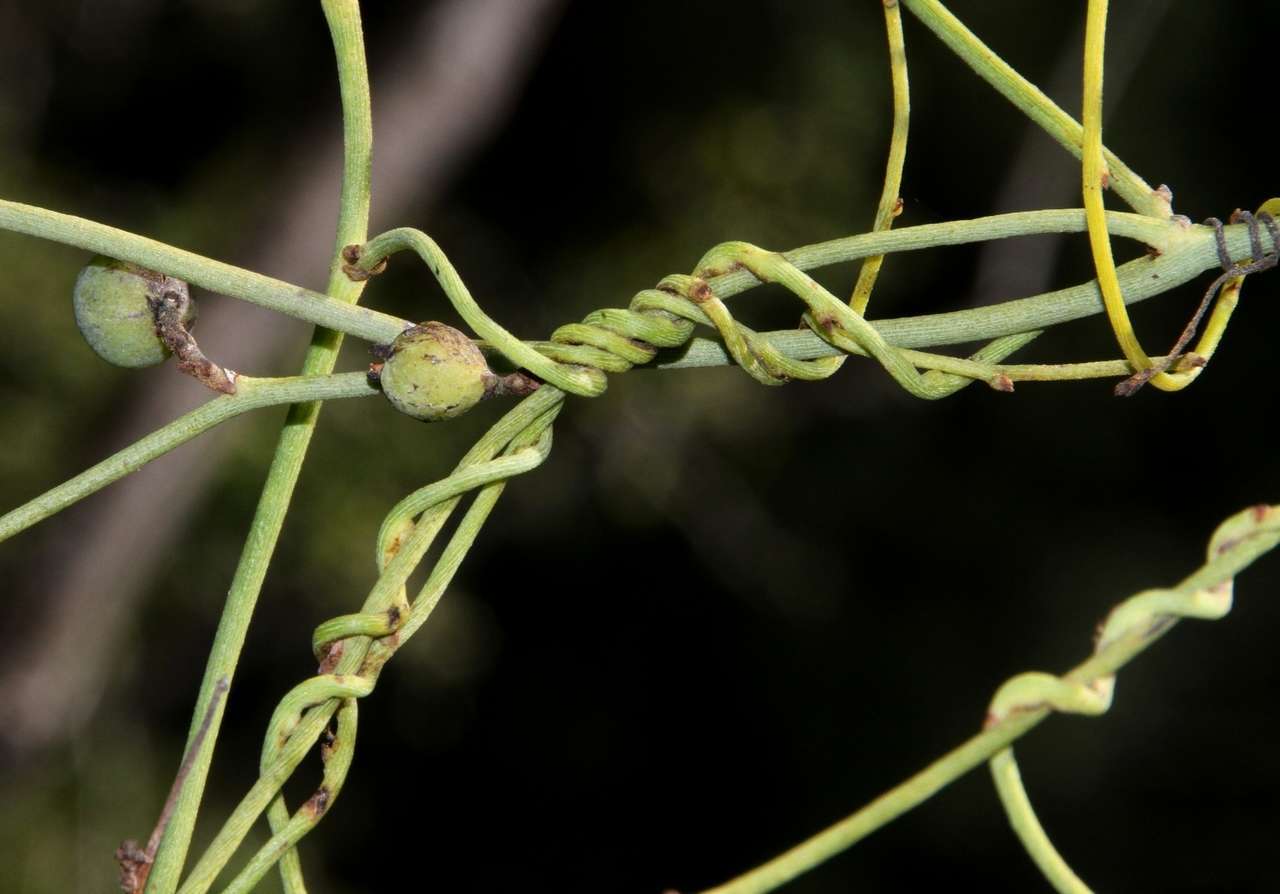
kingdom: Plantae
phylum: Tracheophyta
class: Magnoliopsida
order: Laurales
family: Lauraceae
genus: Cassytha
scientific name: Cassytha melantha
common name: Mallee stranglevine
